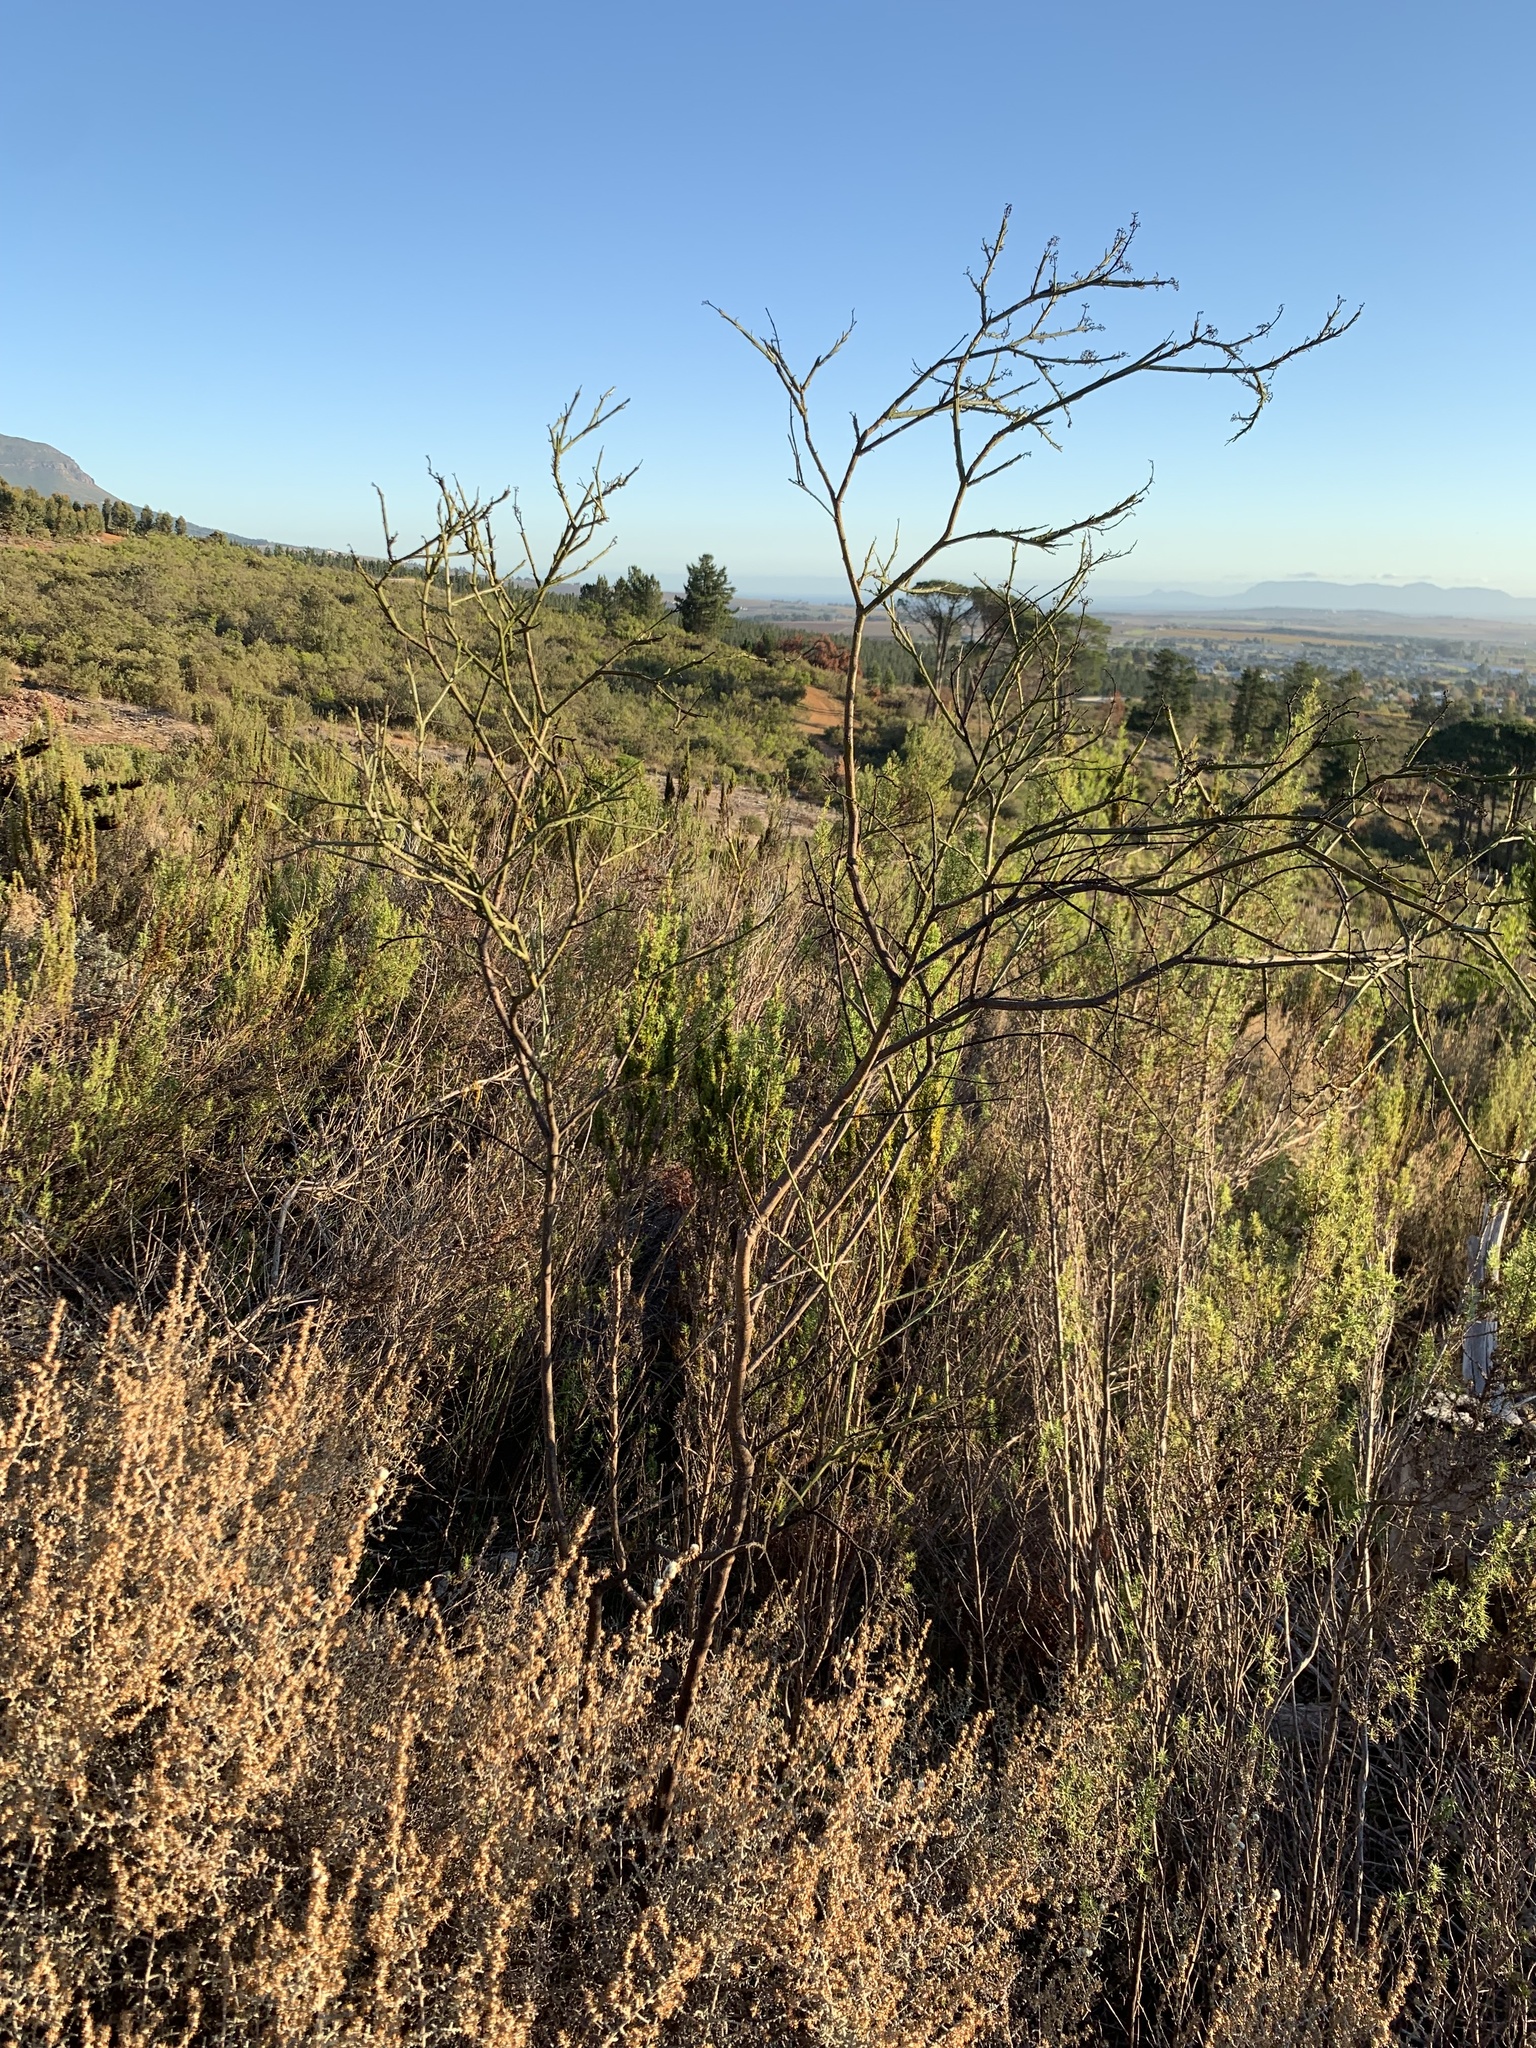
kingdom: Plantae
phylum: Tracheophyta
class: Magnoliopsida
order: Santalales
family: Thesiaceae
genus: Thesium
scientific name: Thesium strictum
